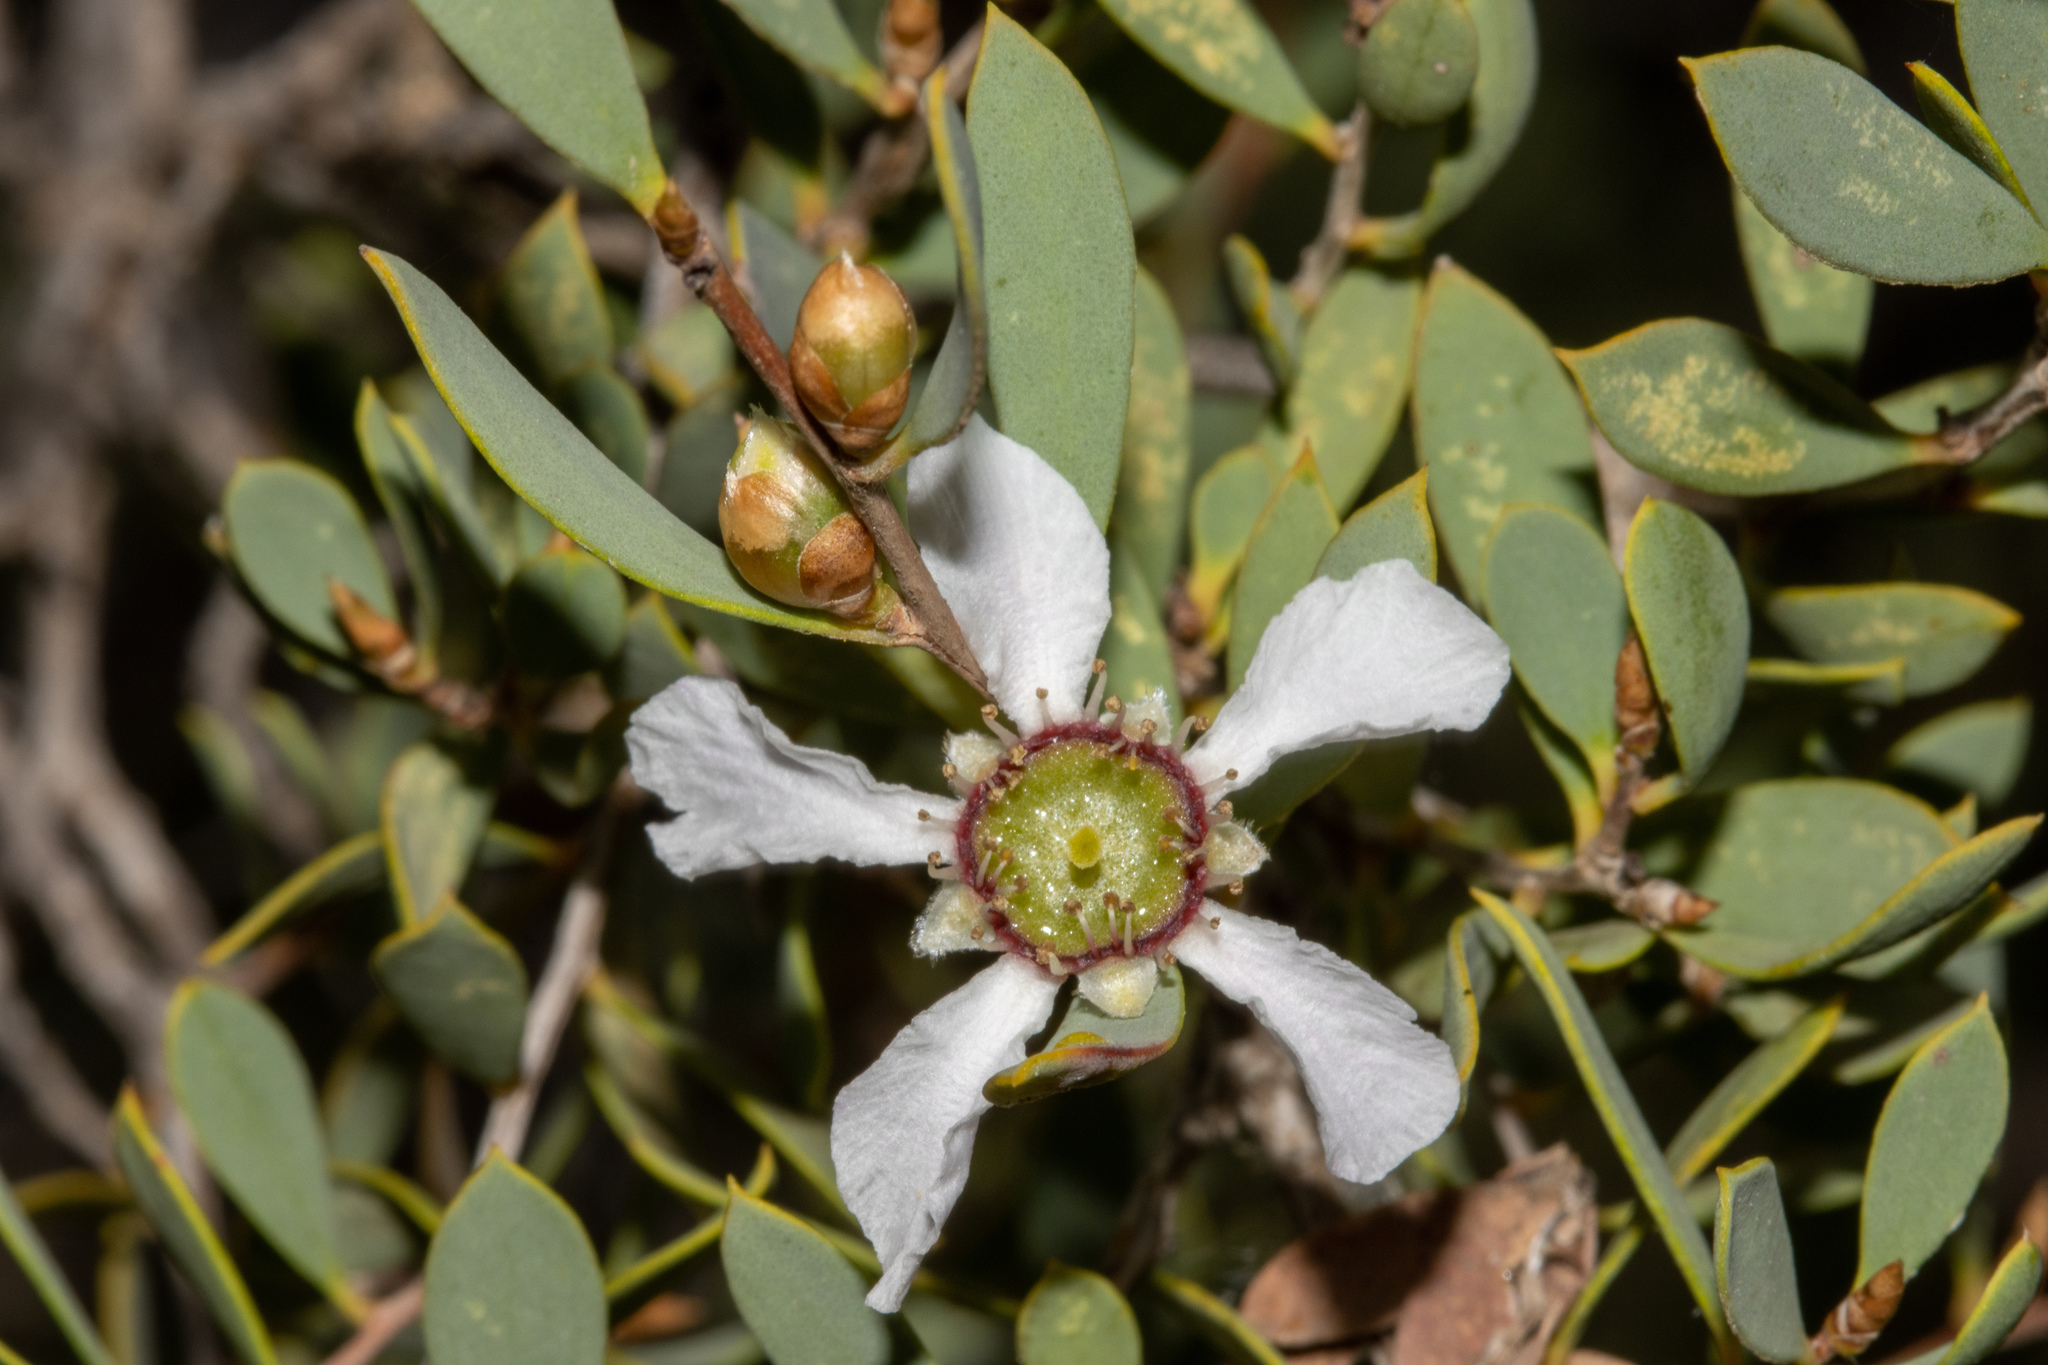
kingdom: Plantae
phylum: Tracheophyta
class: Magnoliopsida
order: Myrtales
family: Myrtaceae
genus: Leptospermum
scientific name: Leptospermum coriaceum
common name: Mallee teatree
